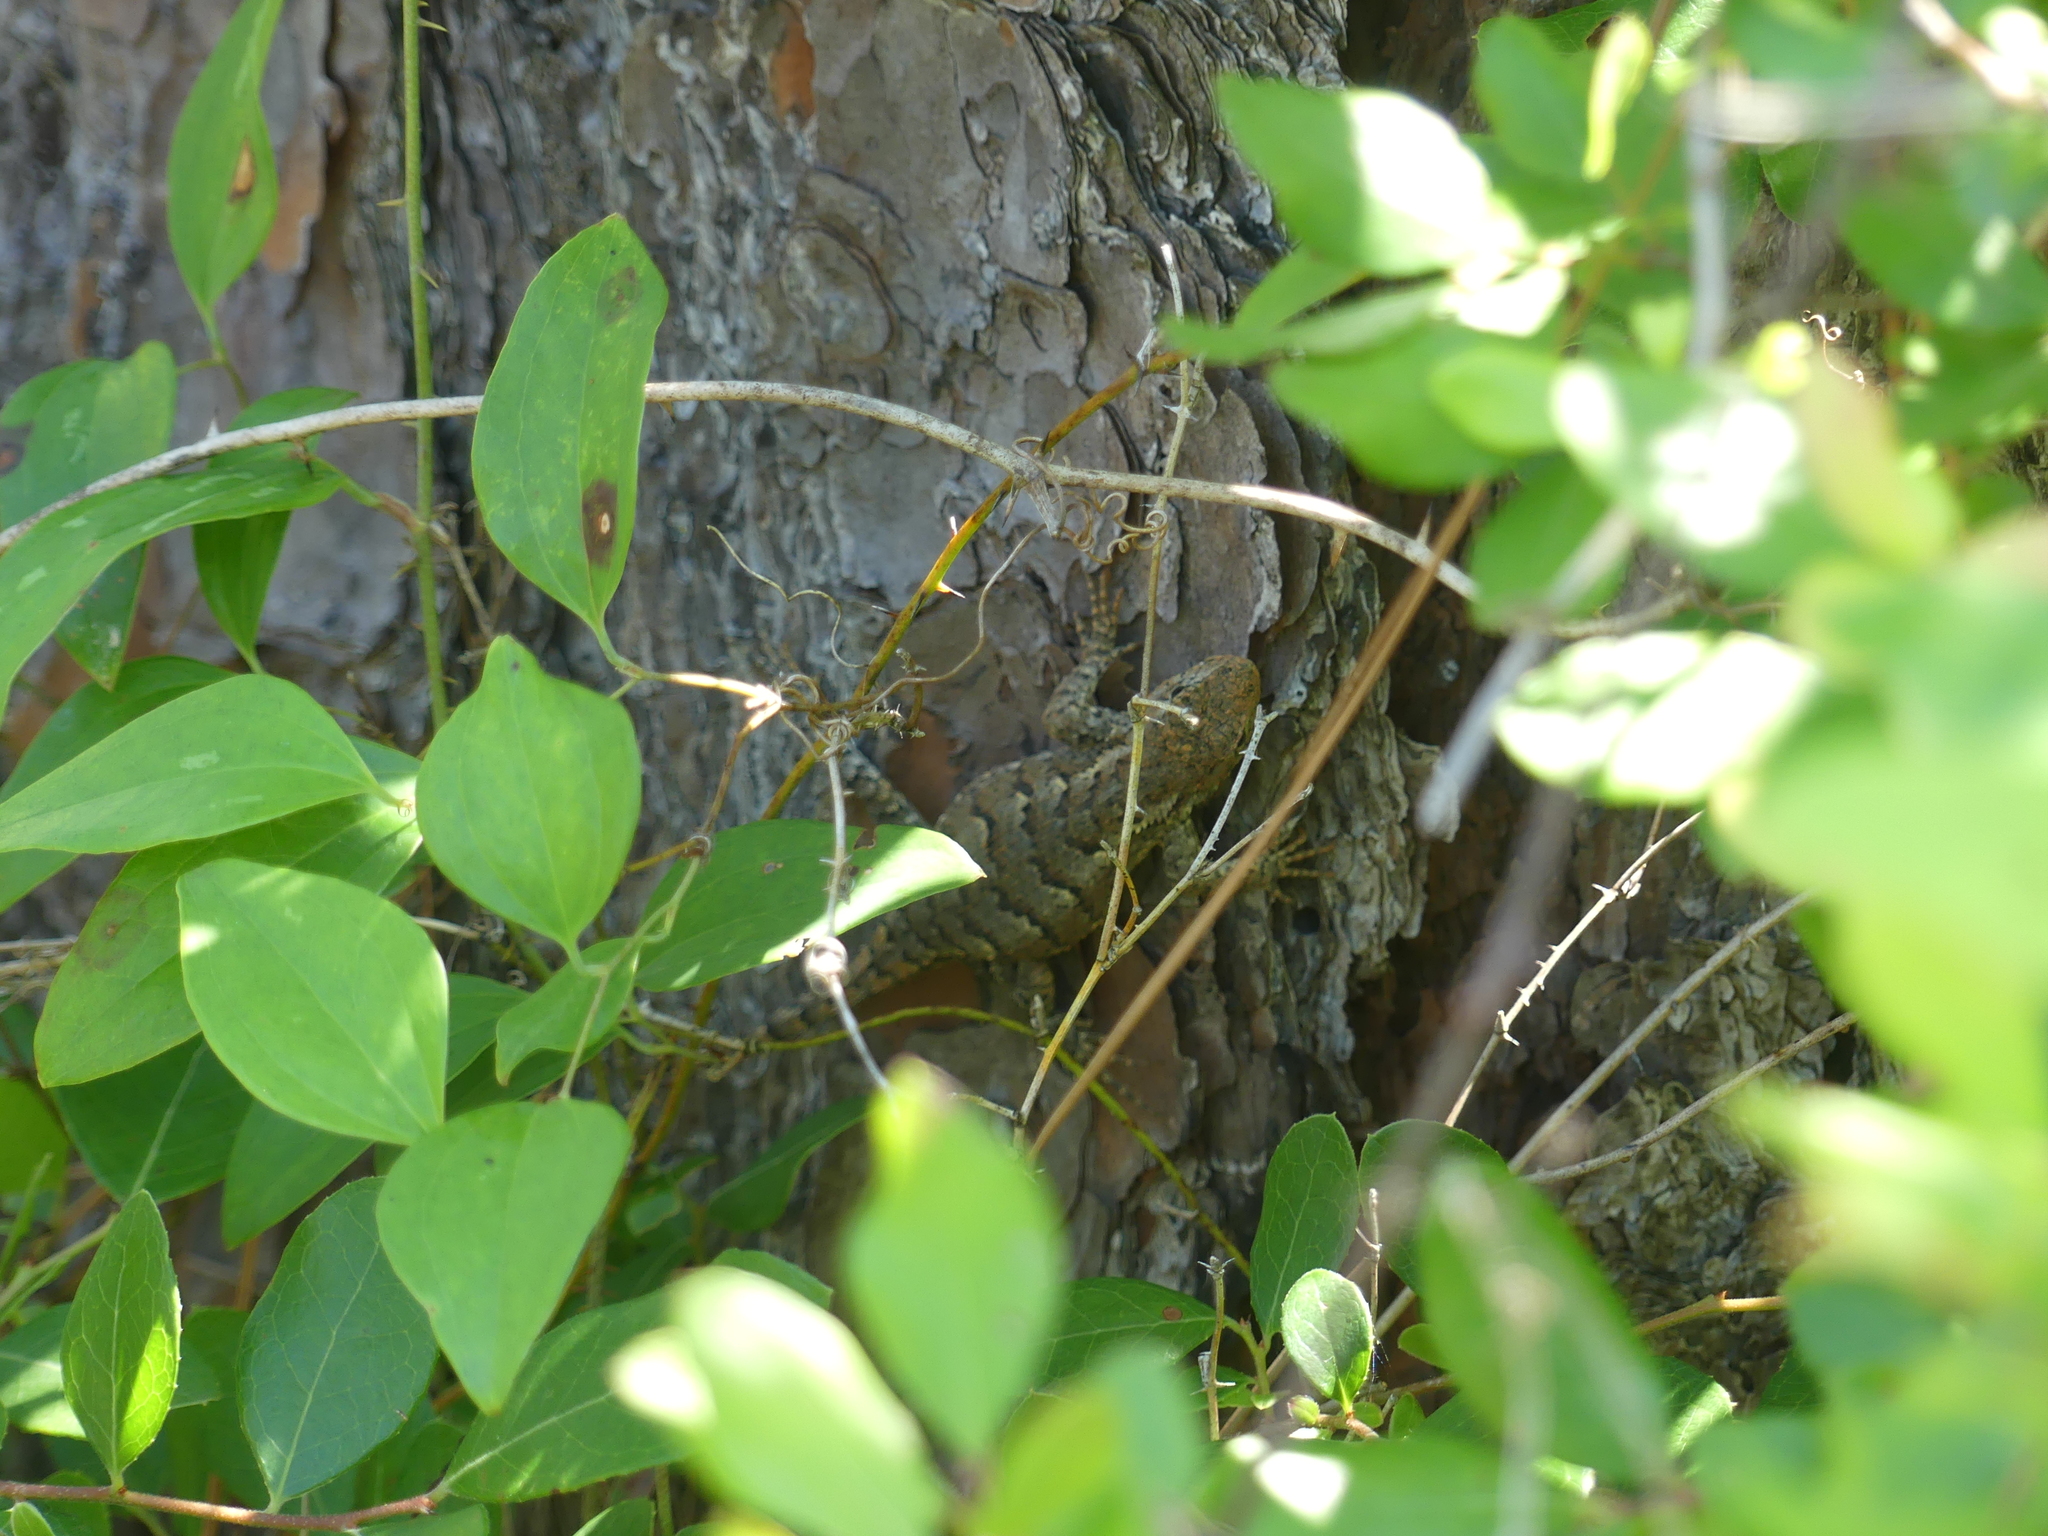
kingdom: Animalia
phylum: Chordata
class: Squamata
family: Phrynosomatidae
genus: Sceloporus
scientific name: Sceloporus consobrinus
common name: Southern prairie lizard
